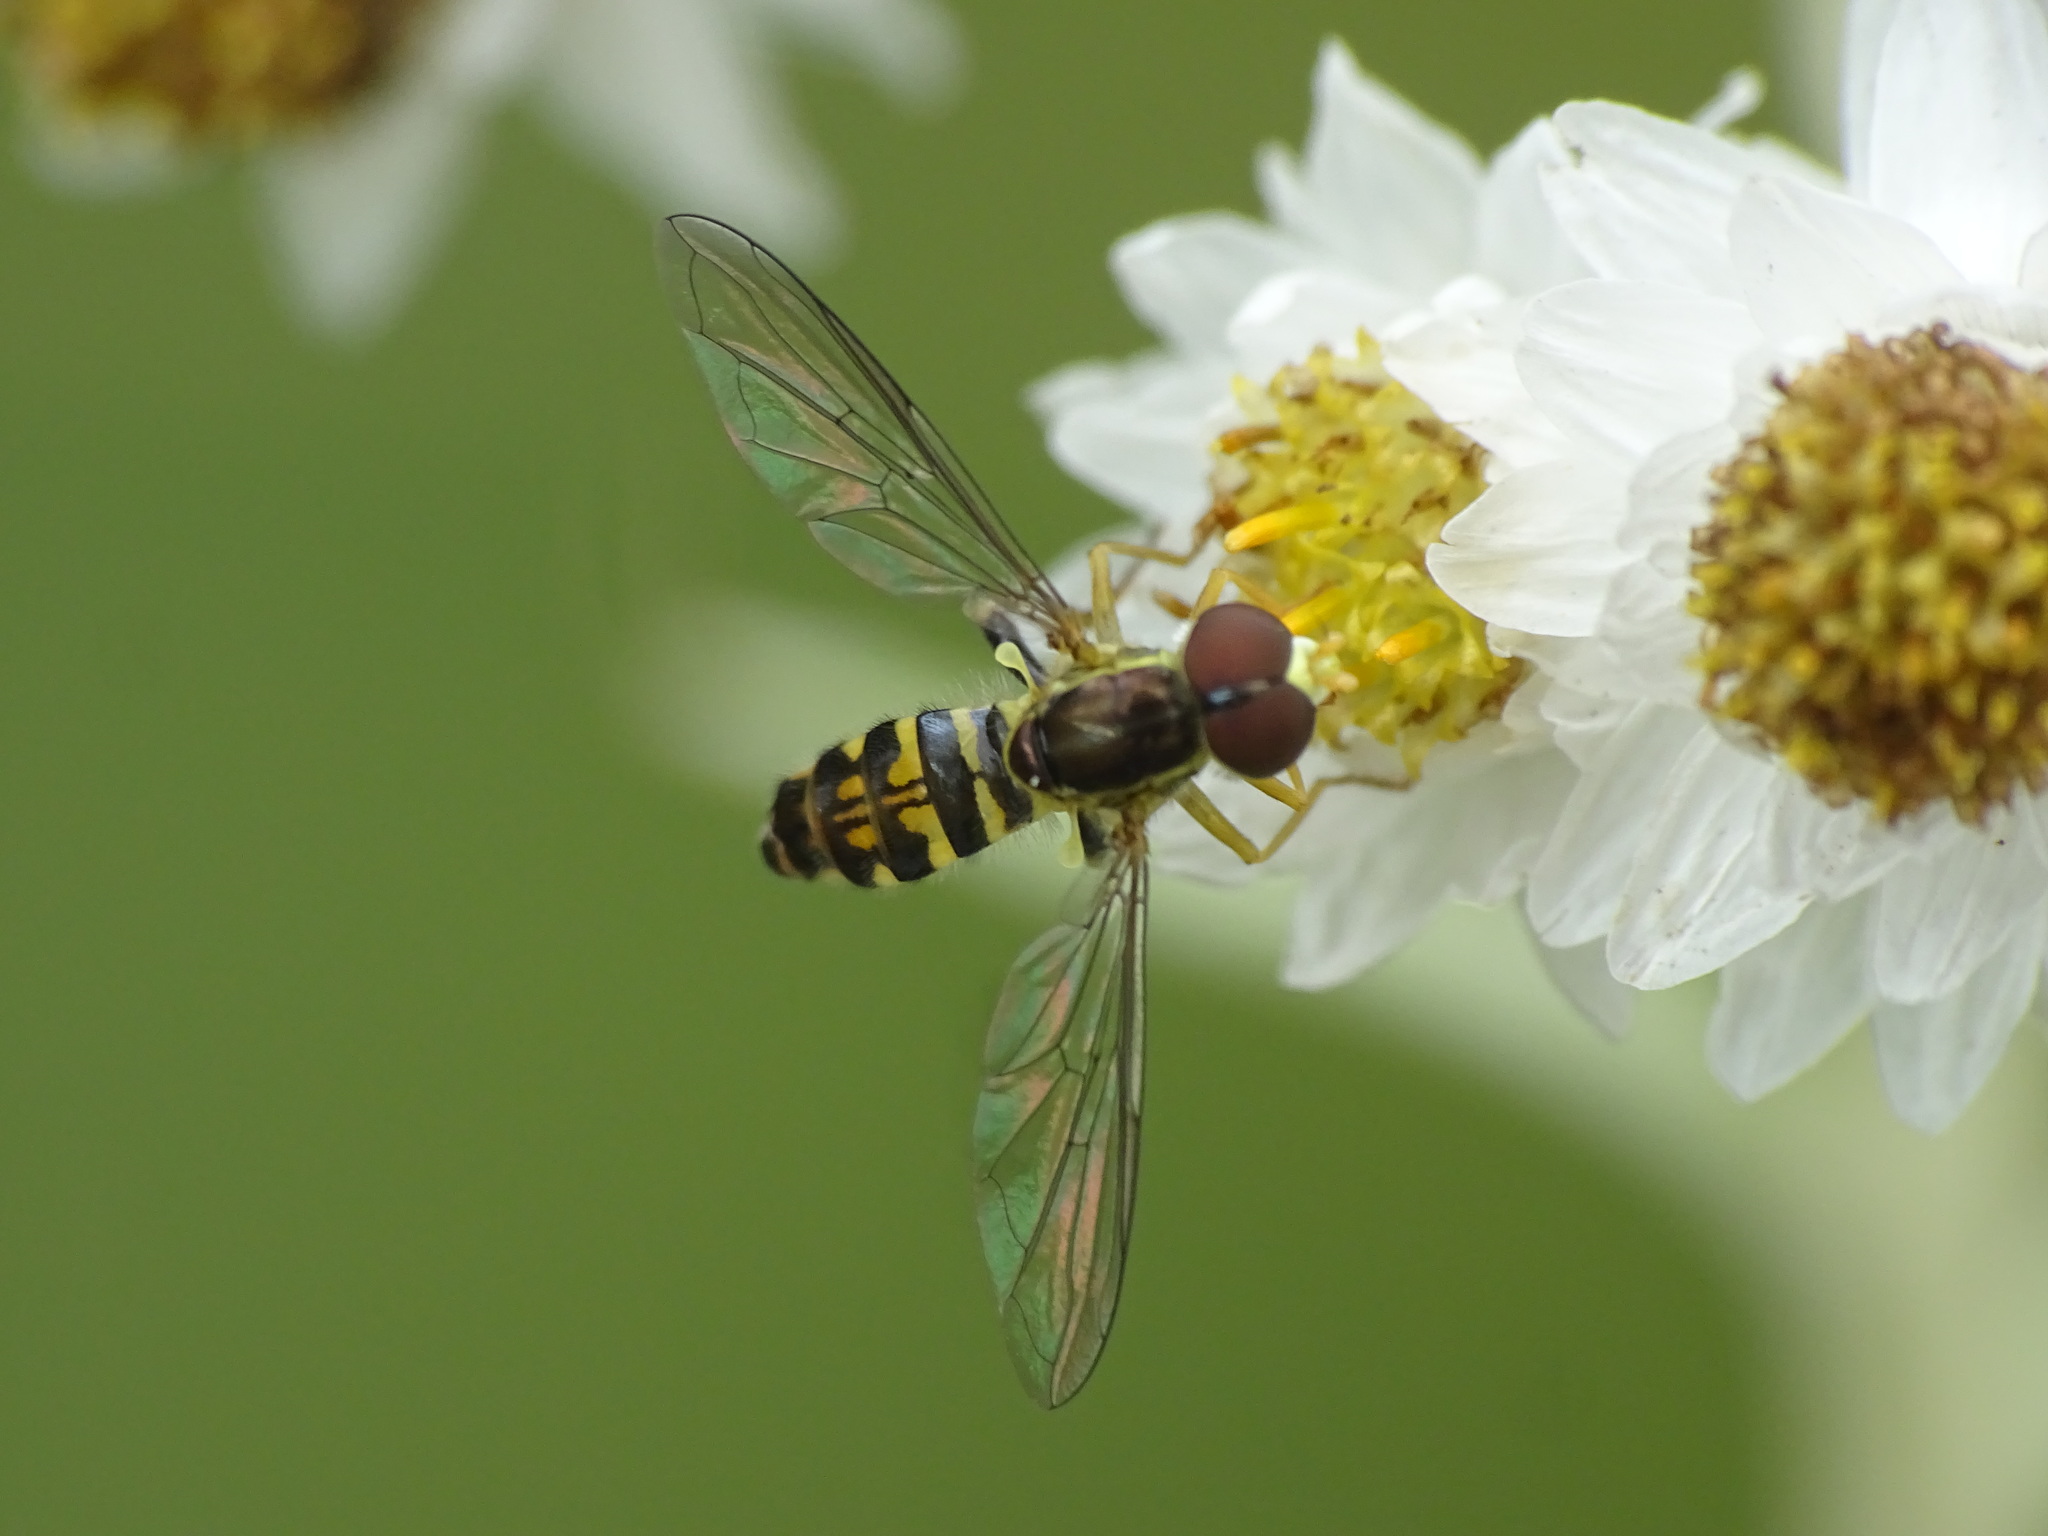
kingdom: Animalia
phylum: Arthropoda
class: Insecta
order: Diptera
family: Syrphidae
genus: Toxomerus
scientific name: Toxomerus geminatus
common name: Eastern calligrapher
